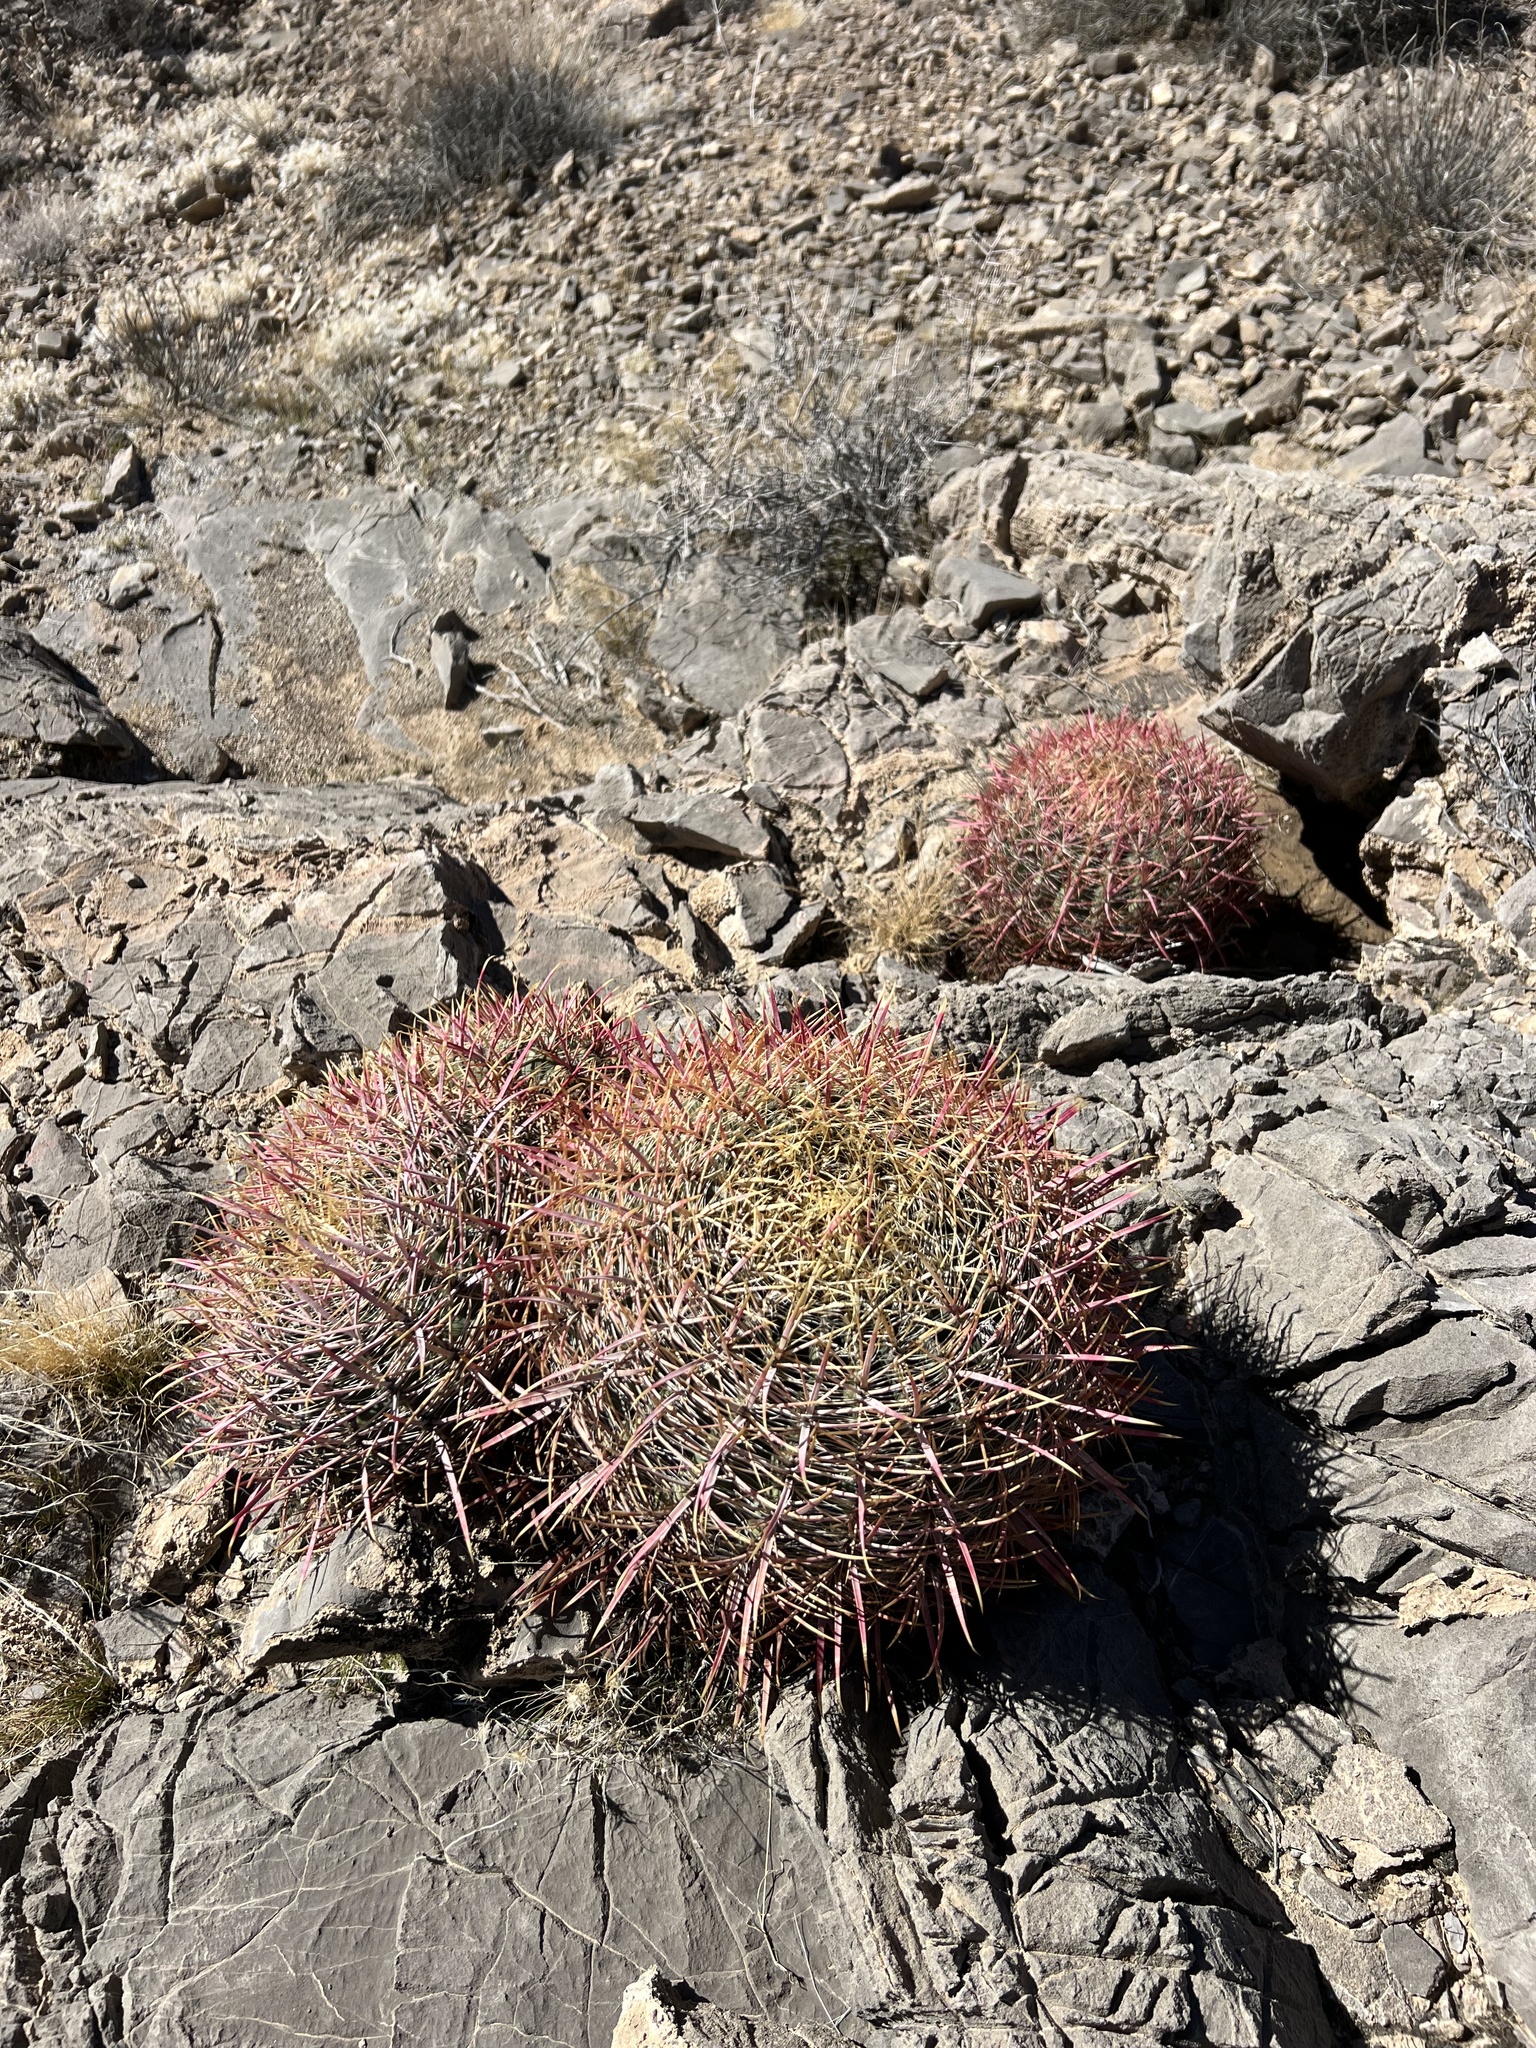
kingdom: Plantae
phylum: Tracheophyta
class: Magnoliopsida
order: Caryophyllales
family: Cactaceae
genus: Ferocactus
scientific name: Ferocactus cylindraceus
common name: California barrel cactus
